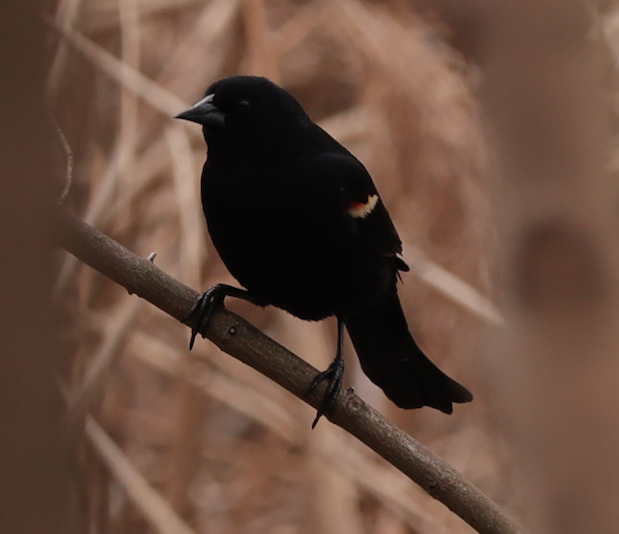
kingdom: Animalia
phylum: Chordata
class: Aves
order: Passeriformes
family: Icteridae
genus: Agelaius
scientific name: Agelaius phoeniceus
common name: Red-winged blackbird
